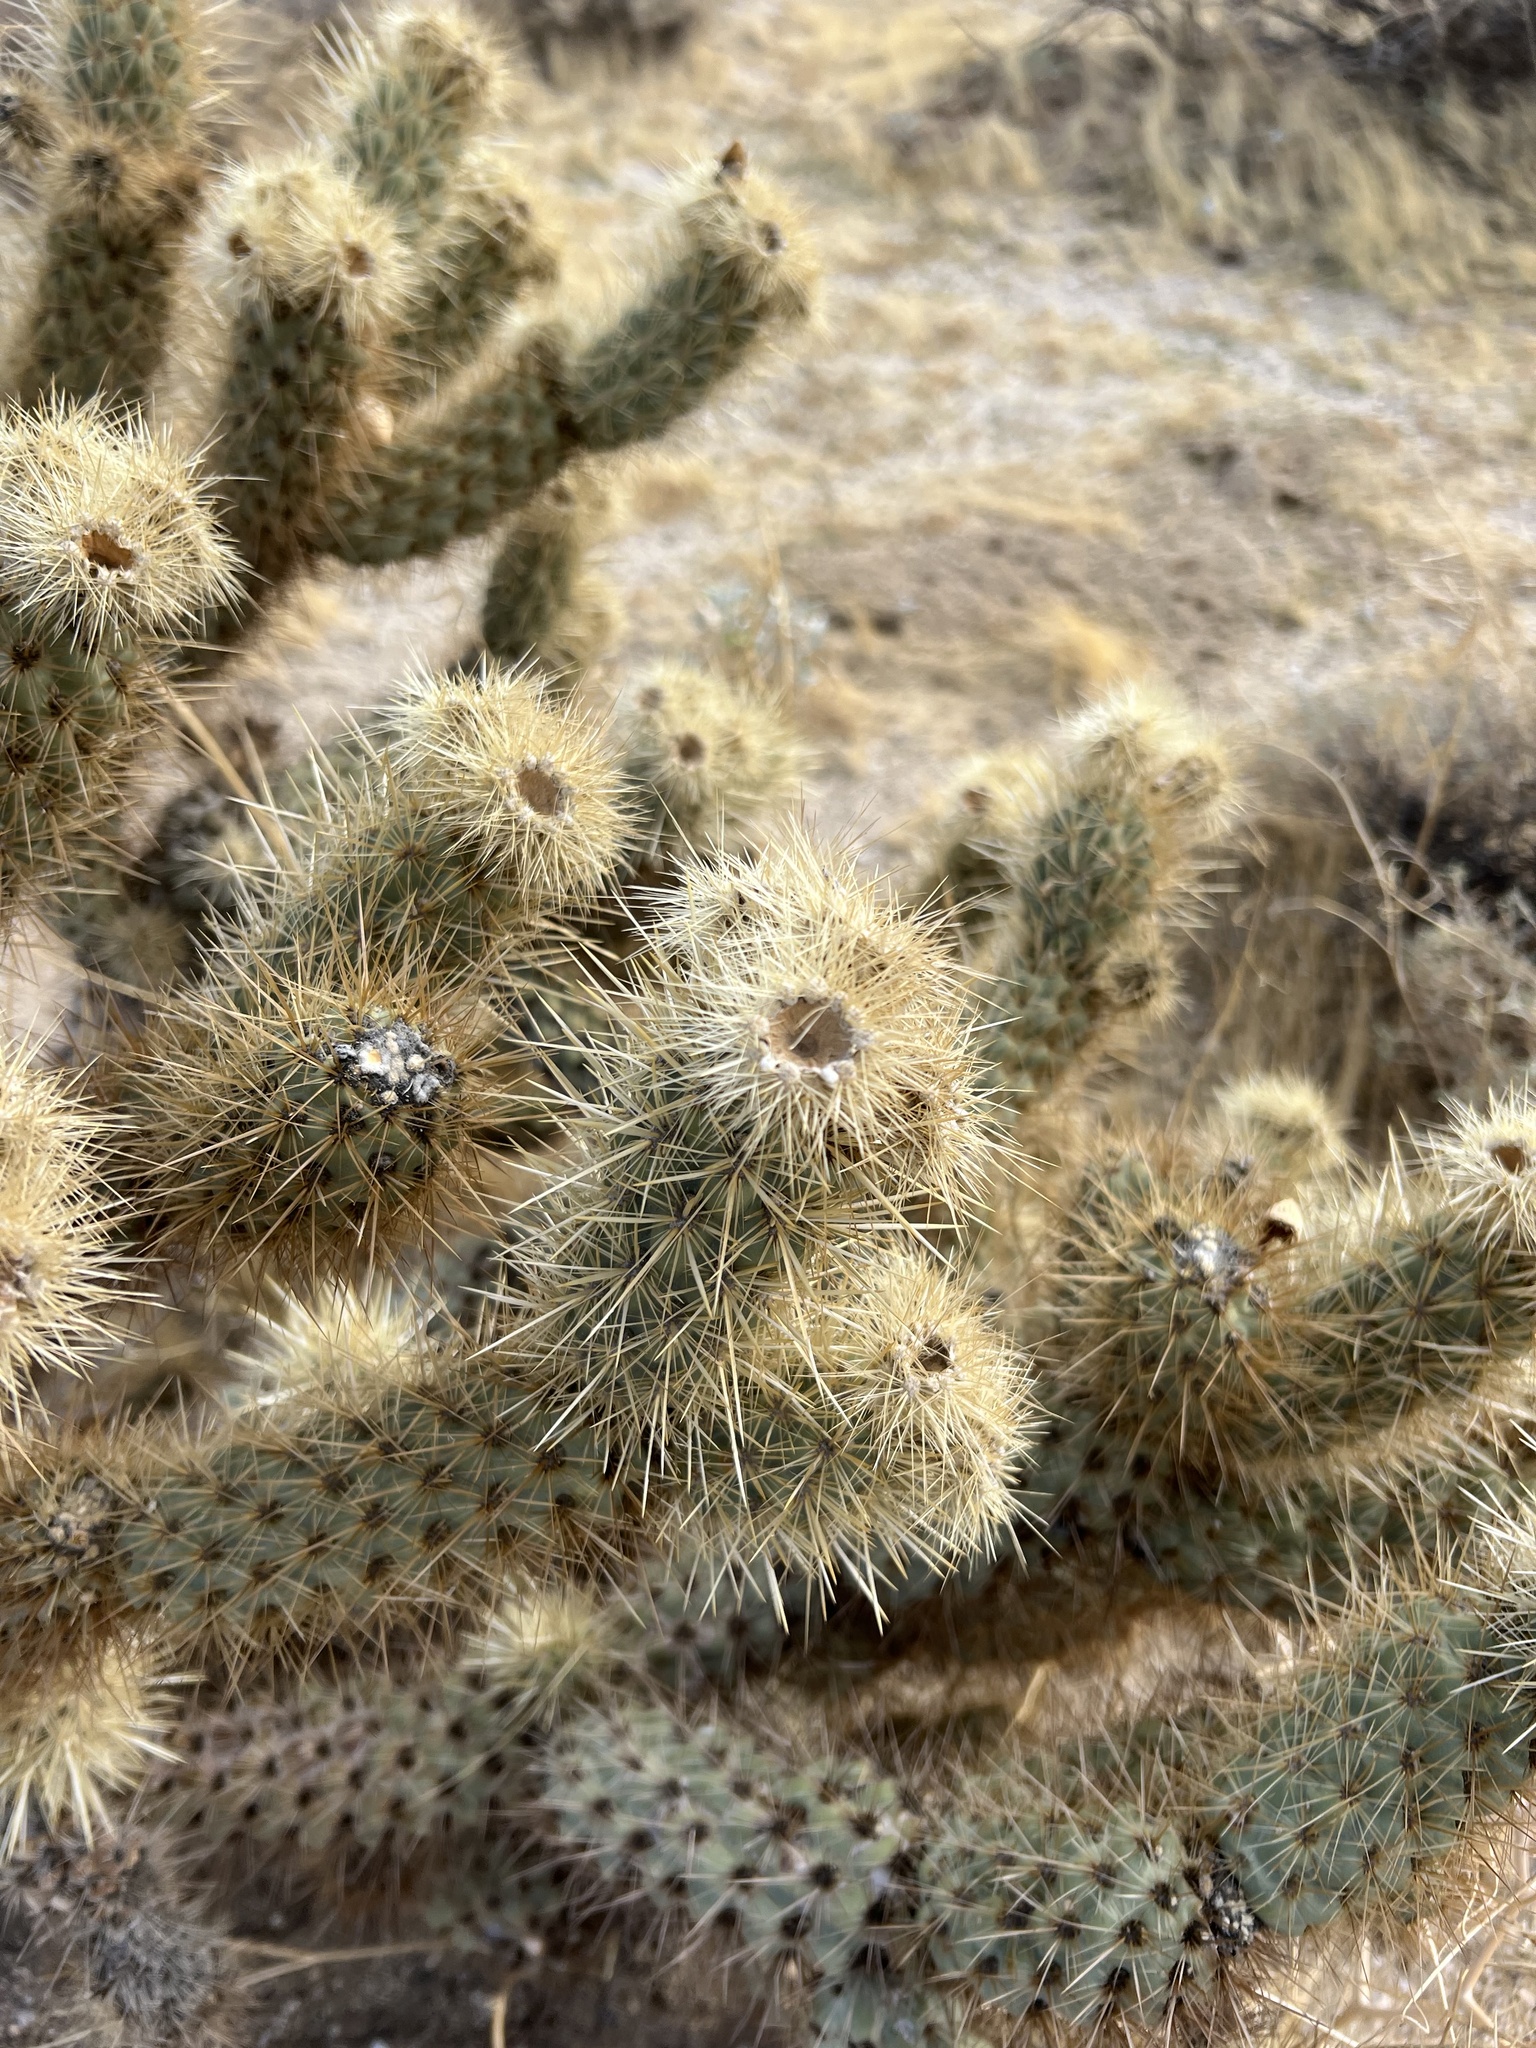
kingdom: Plantae
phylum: Tracheophyta
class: Magnoliopsida
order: Caryophyllales
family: Cactaceae
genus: Cylindropuntia
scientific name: Cylindropuntia wolfii
